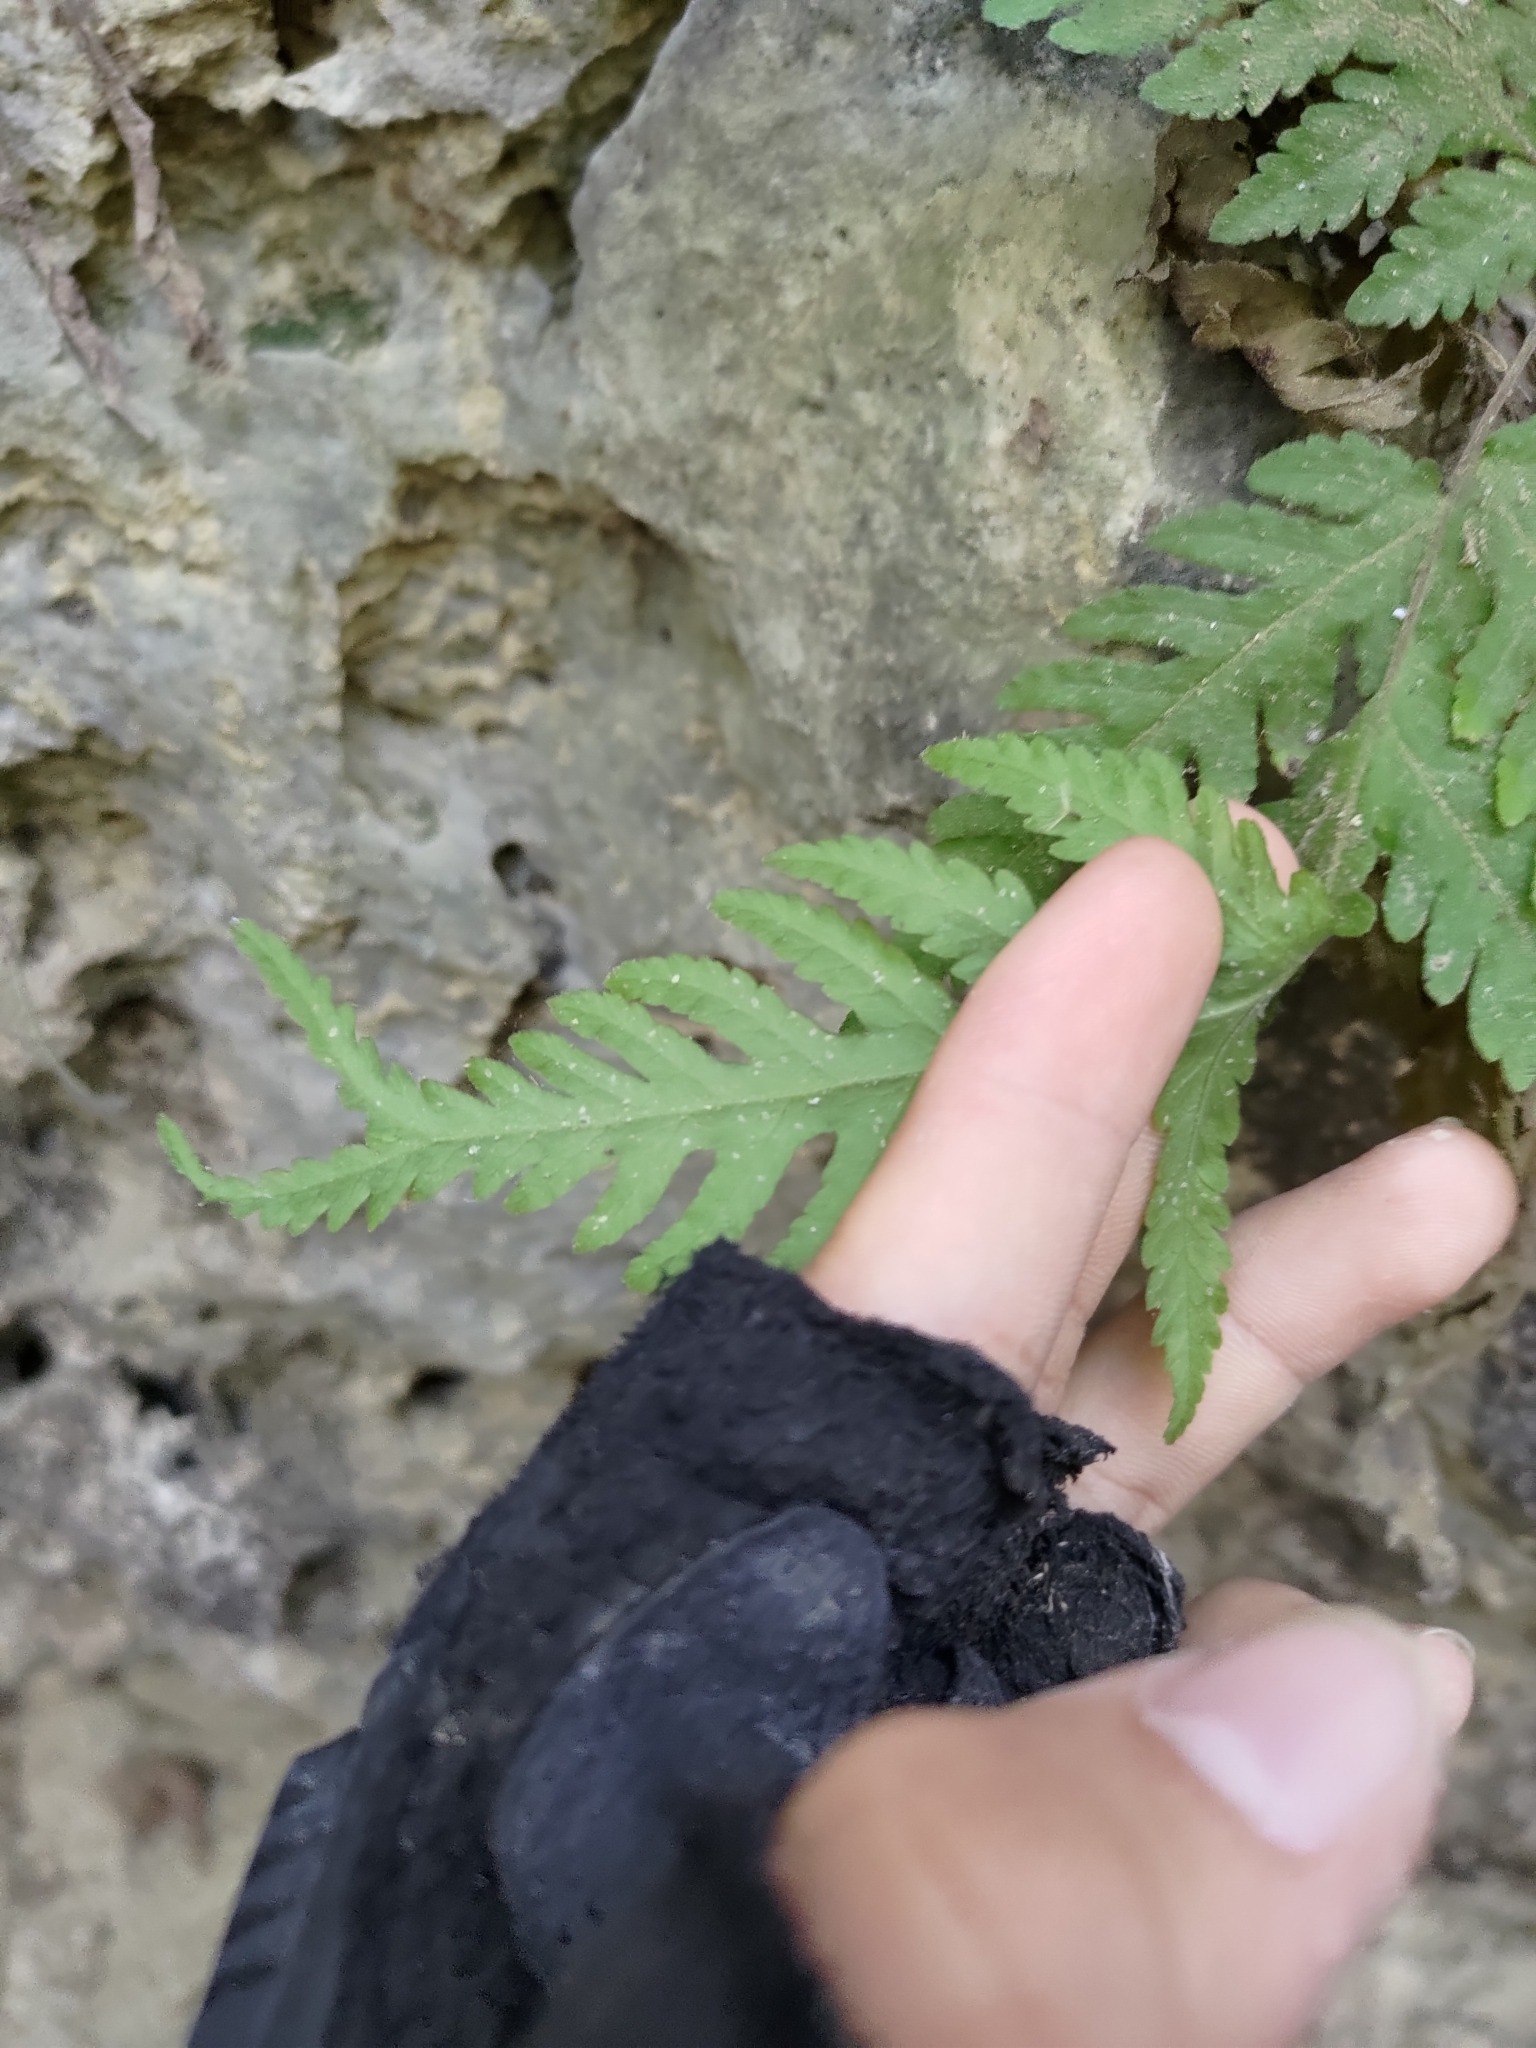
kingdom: Plantae
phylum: Tracheophyta
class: Polypodiopsida
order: Polypodiales
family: Tectariaceae
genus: Tectaria
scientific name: Tectaria membranacea
